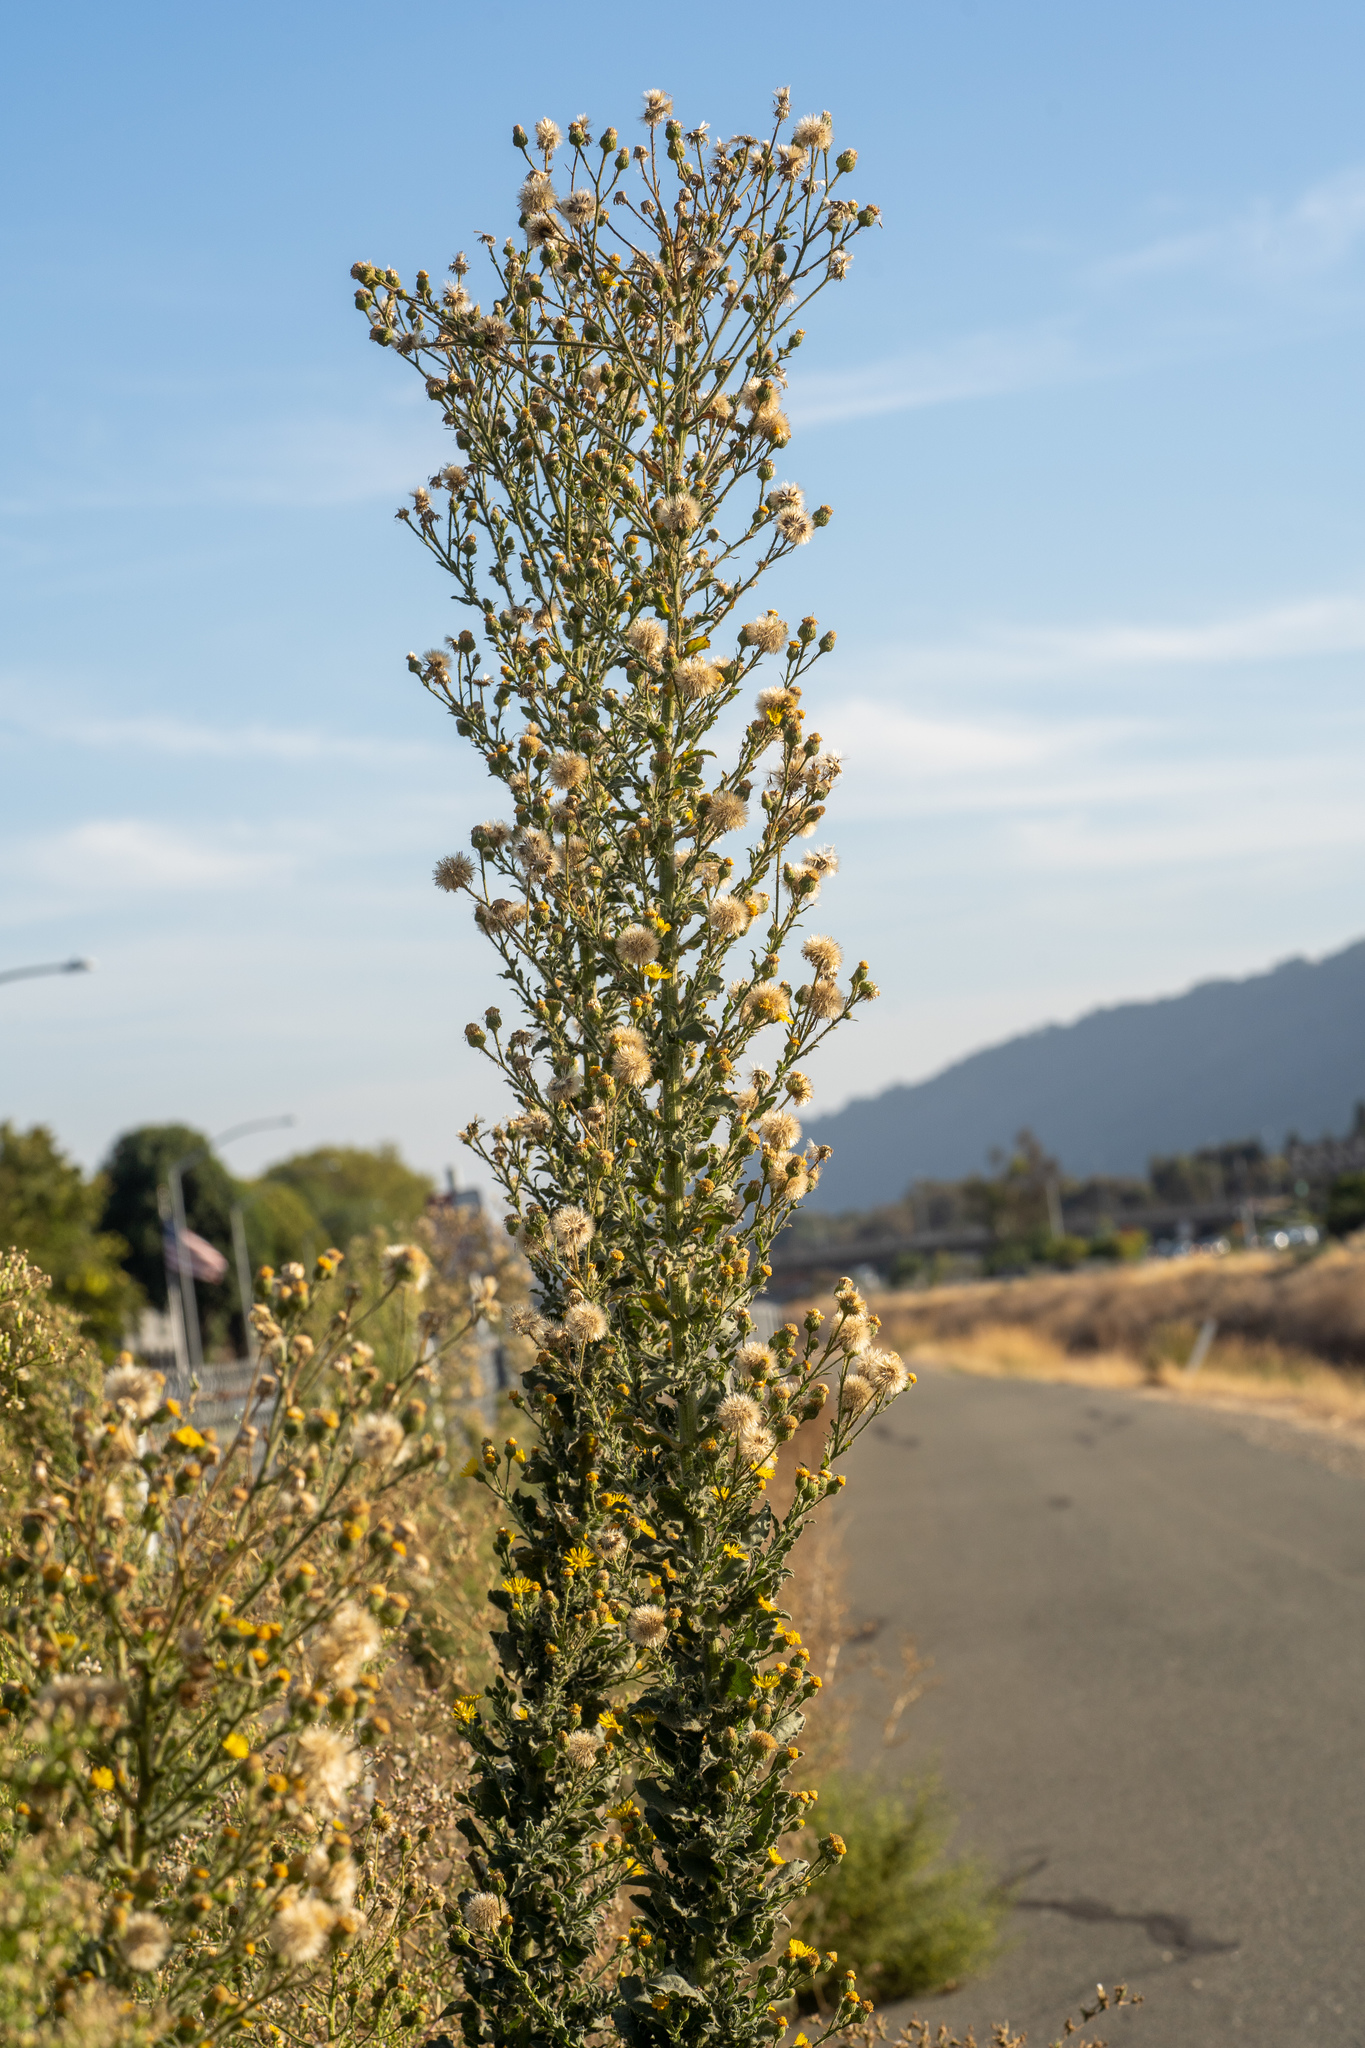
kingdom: Plantae
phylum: Tracheophyta
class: Magnoliopsida
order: Asterales
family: Asteraceae
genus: Heterotheca
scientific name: Heterotheca grandiflora
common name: Telegraphweed
